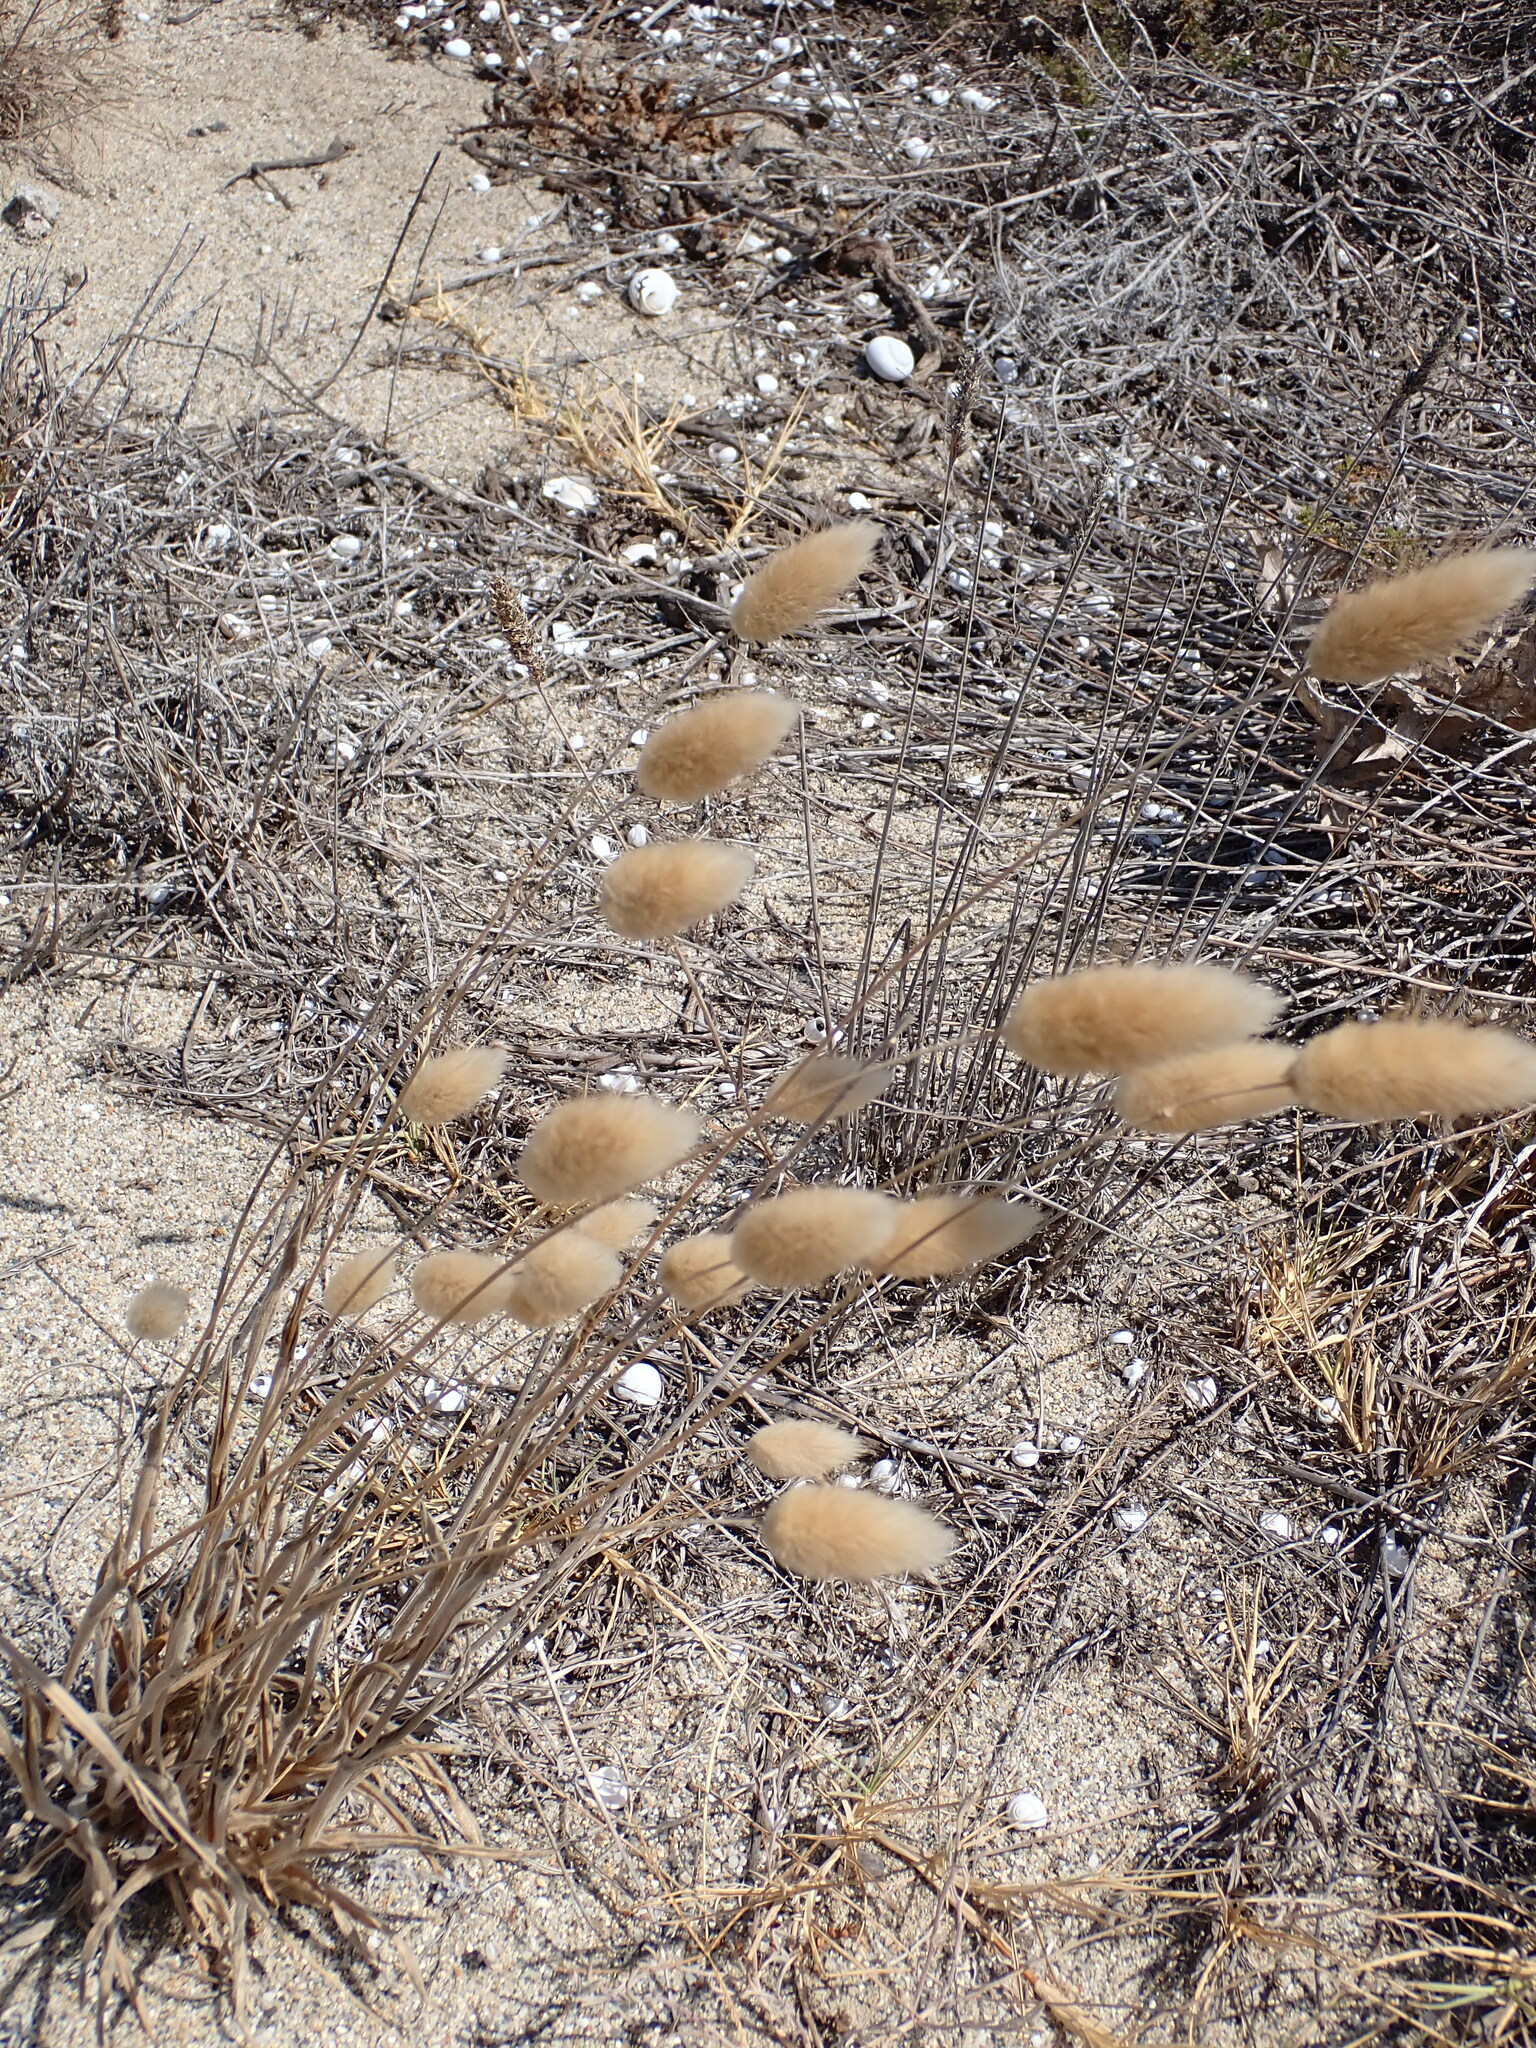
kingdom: Plantae
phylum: Tracheophyta
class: Liliopsida
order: Poales
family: Poaceae
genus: Lagurus
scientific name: Lagurus ovatus
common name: Hare's-tail
